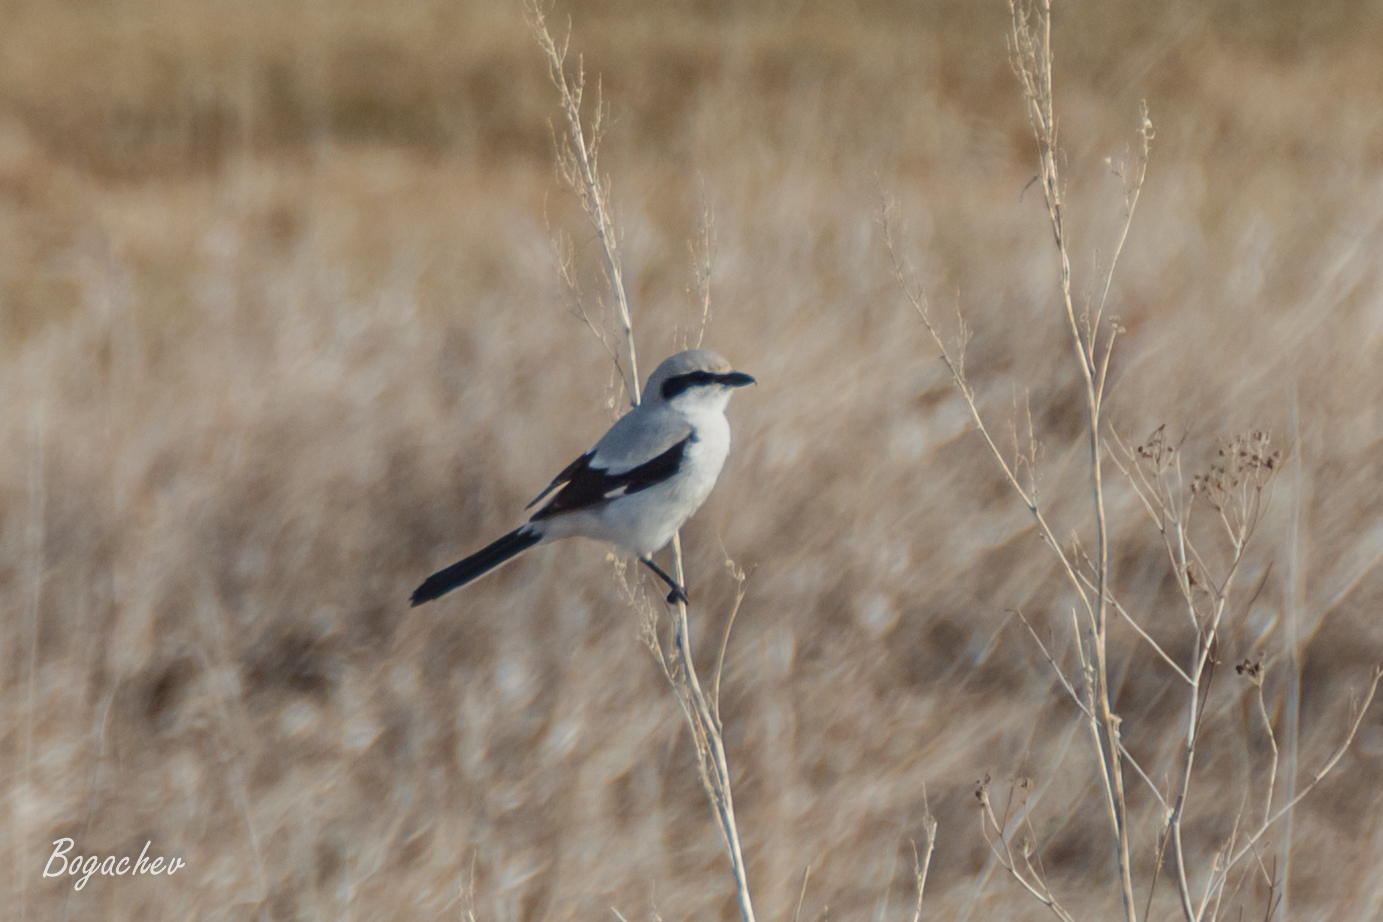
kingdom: Animalia
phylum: Chordata
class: Aves
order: Passeriformes
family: Laniidae
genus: Lanius
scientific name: Lanius excubitor
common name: Great grey shrike
